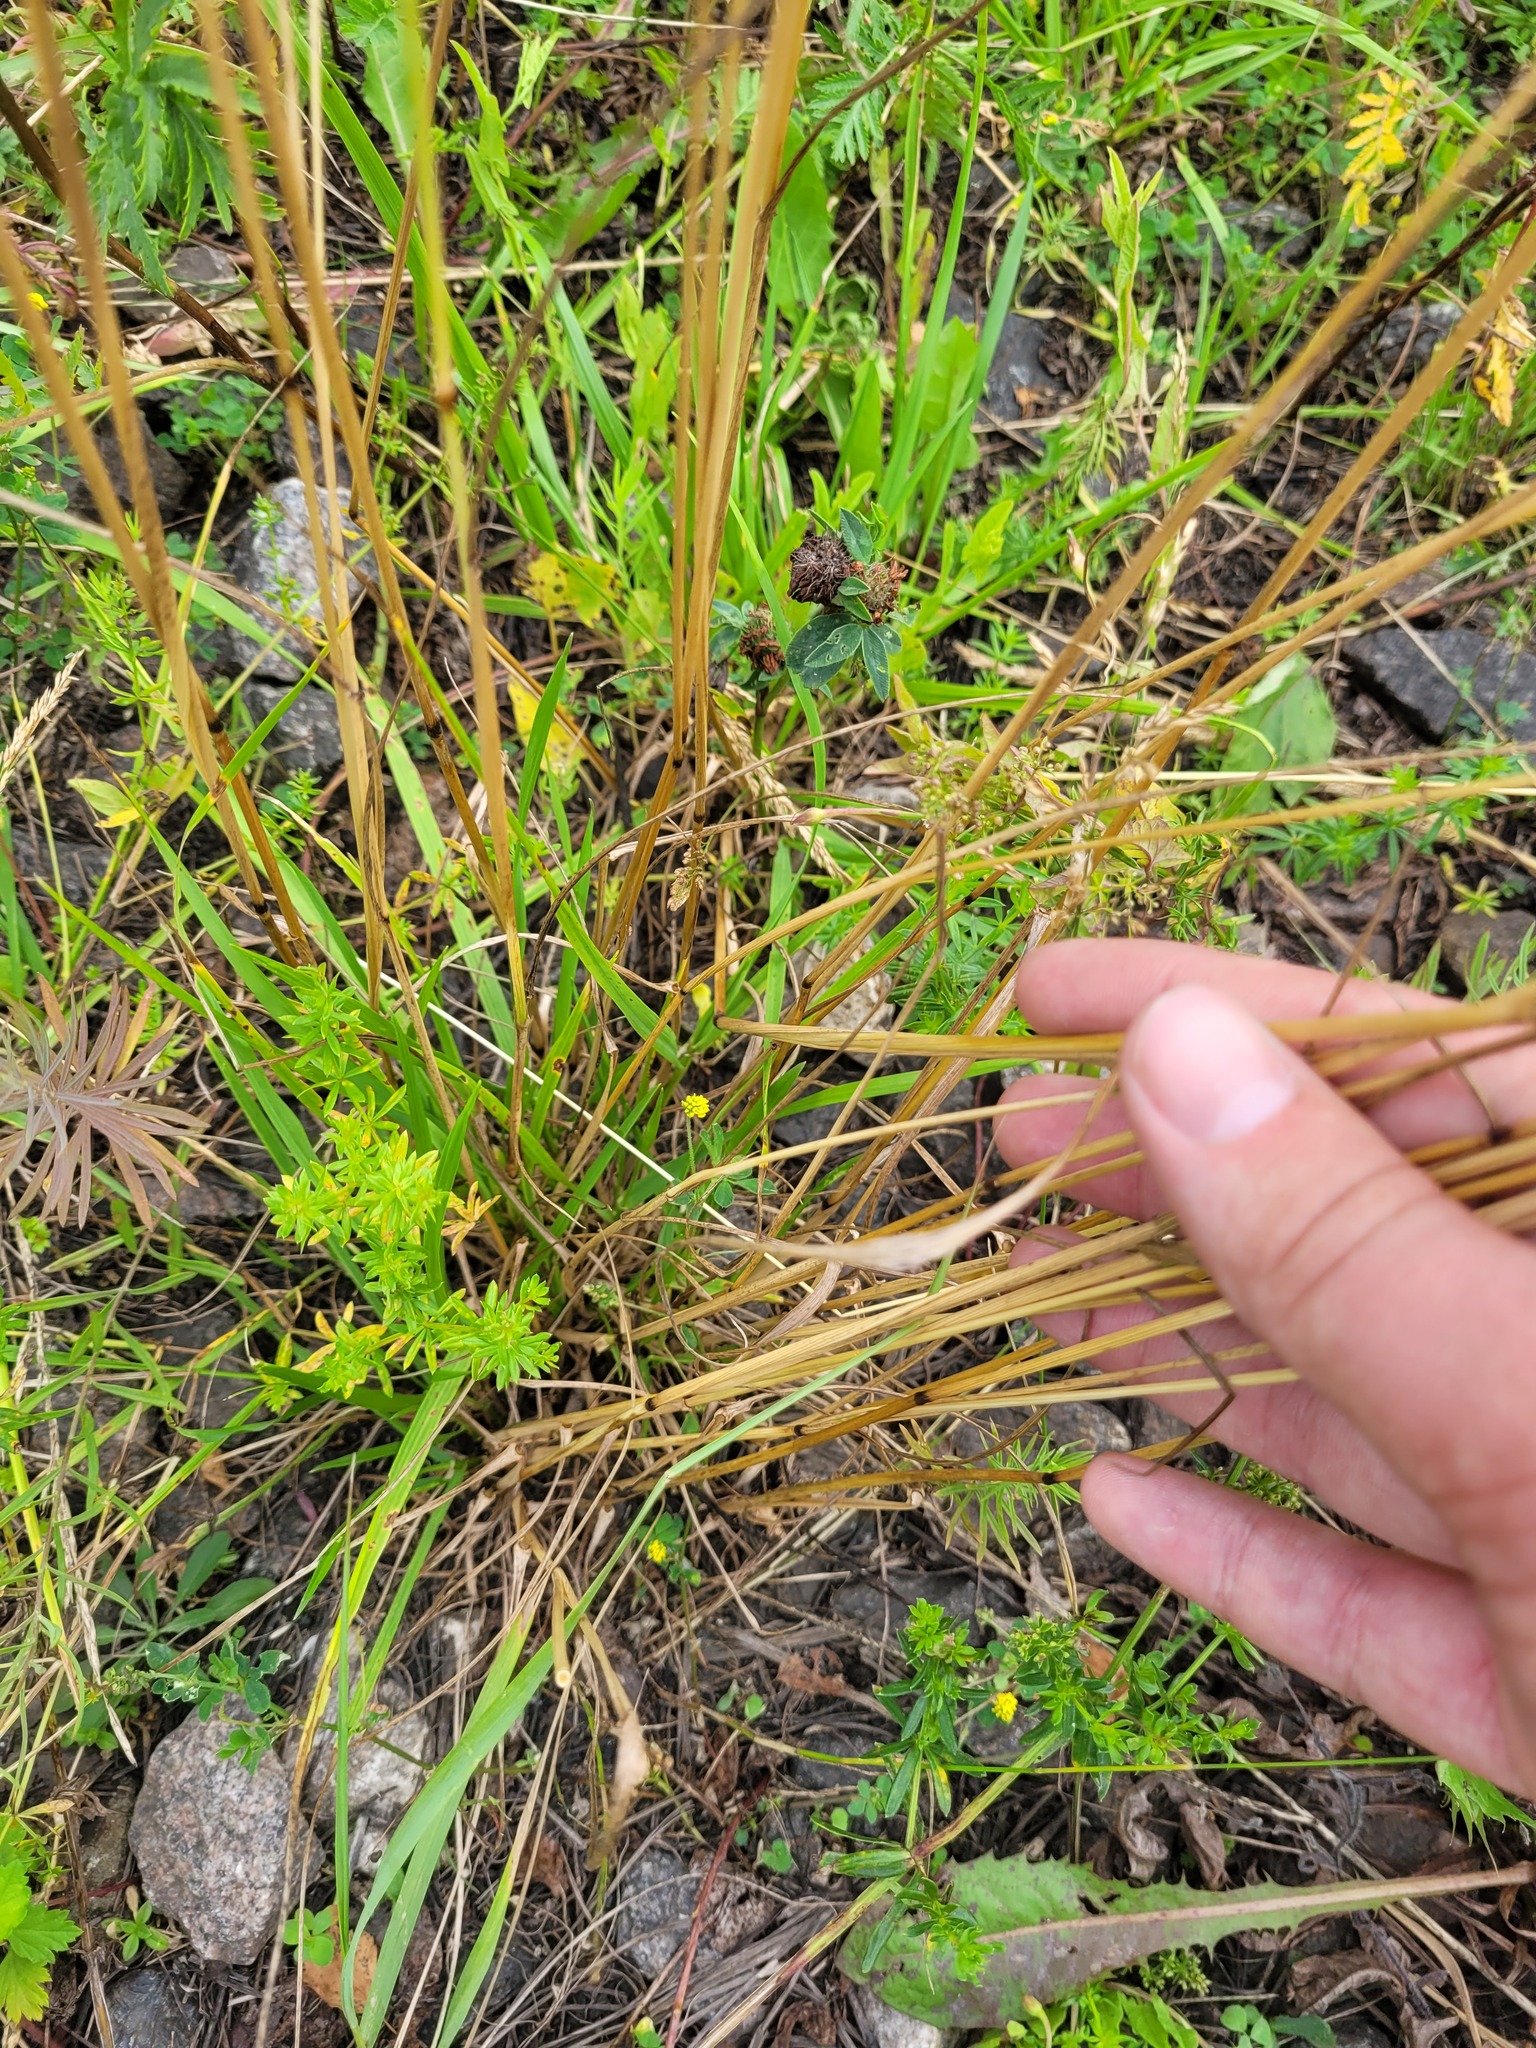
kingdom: Plantae
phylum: Tracheophyta
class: Liliopsida
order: Poales
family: Poaceae
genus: Lolium
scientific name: Lolium pratense
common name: Dover grass
